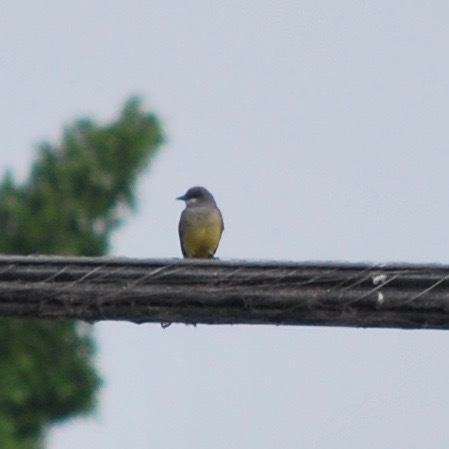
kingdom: Animalia
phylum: Chordata
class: Aves
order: Passeriformes
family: Tyrannidae
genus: Tyrannus
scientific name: Tyrannus vociferans
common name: Cassin's kingbird
